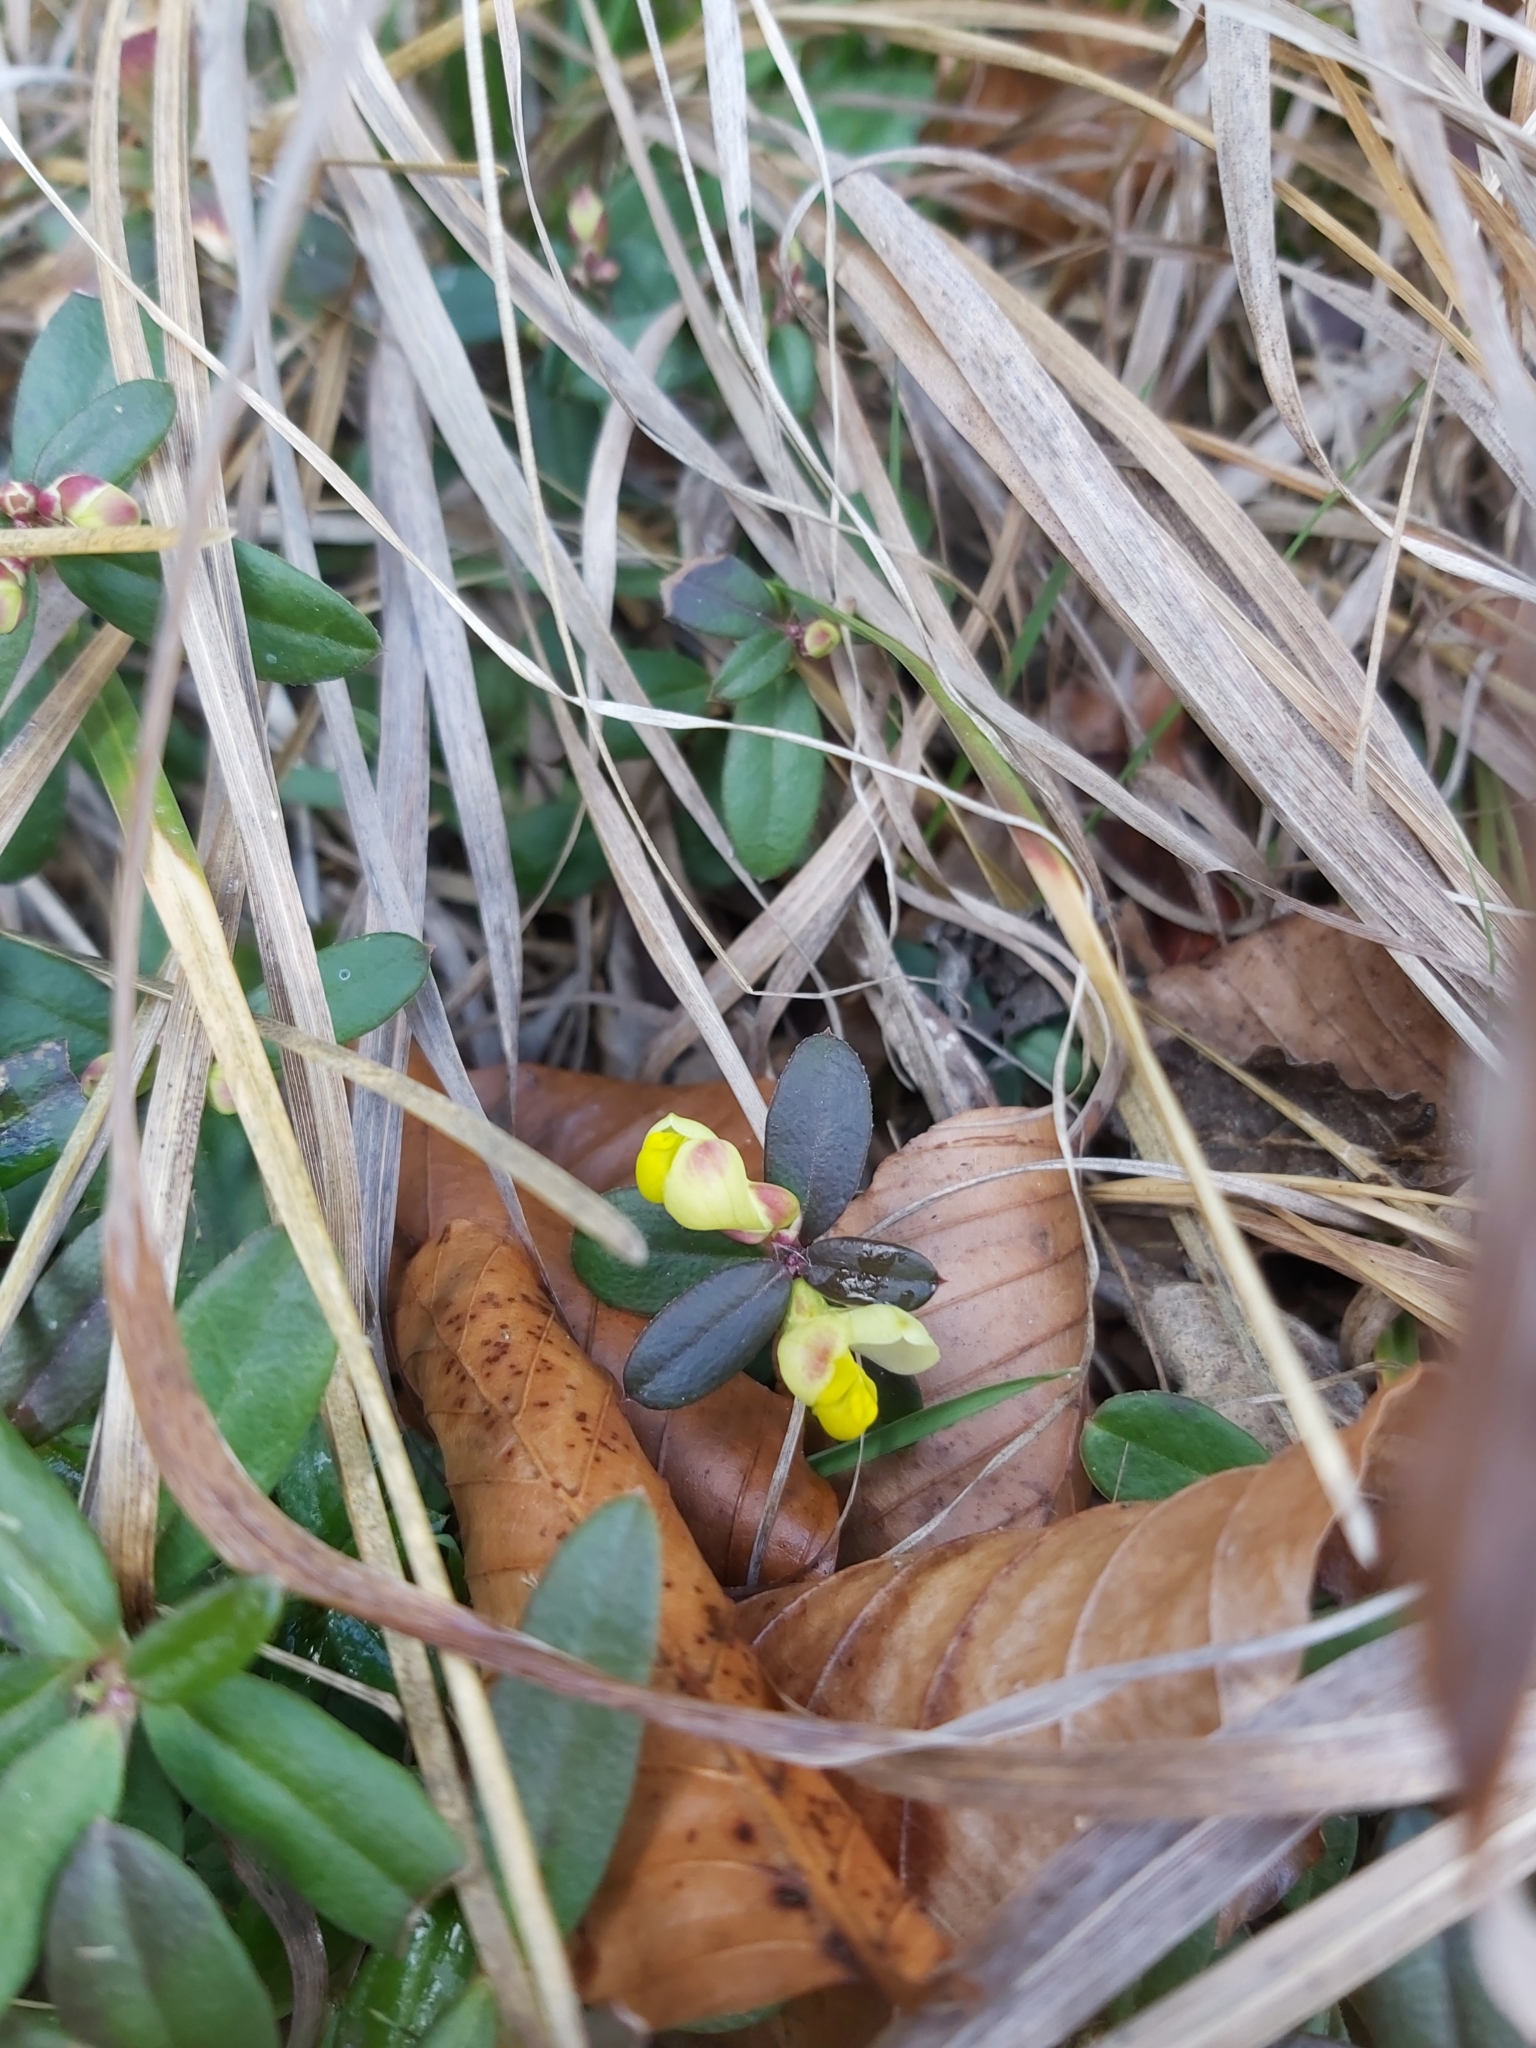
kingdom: Plantae
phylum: Tracheophyta
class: Magnoliopsida
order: Fabales
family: Polygalaceae
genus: Polygaloides
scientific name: Polygaloides chamaebuxus
